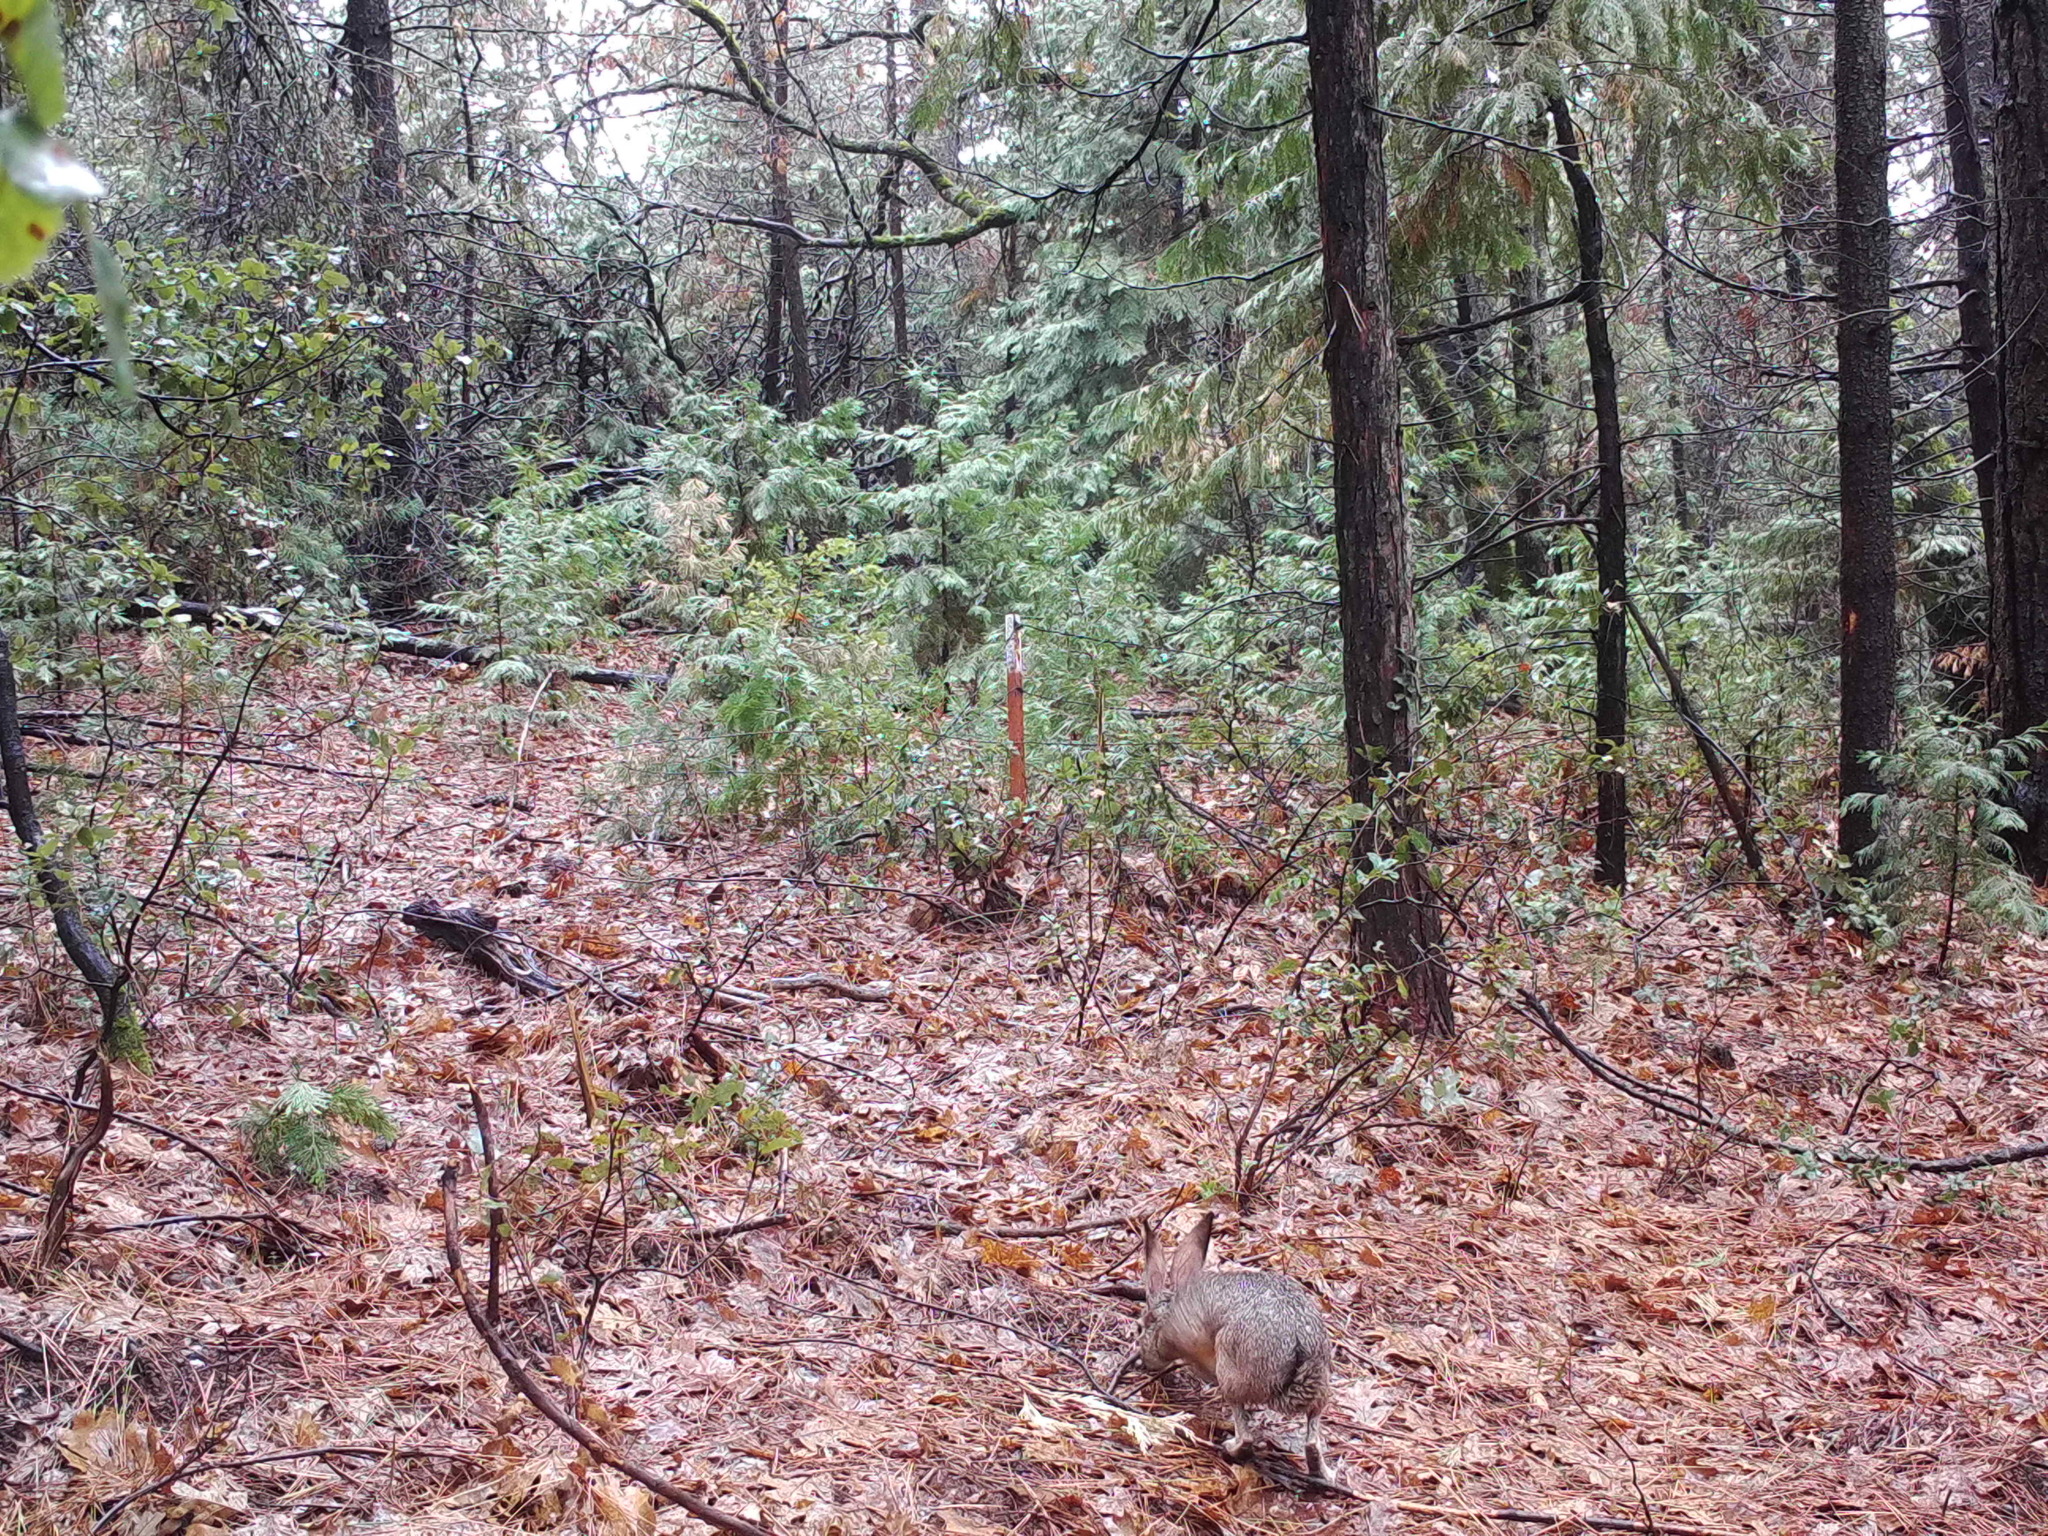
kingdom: Animalia
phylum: Chordata
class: Mammalia
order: Lagomorpha
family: Leporidae
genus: Lepus
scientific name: Lepus californicus
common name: Black-tailed jackrabbit
